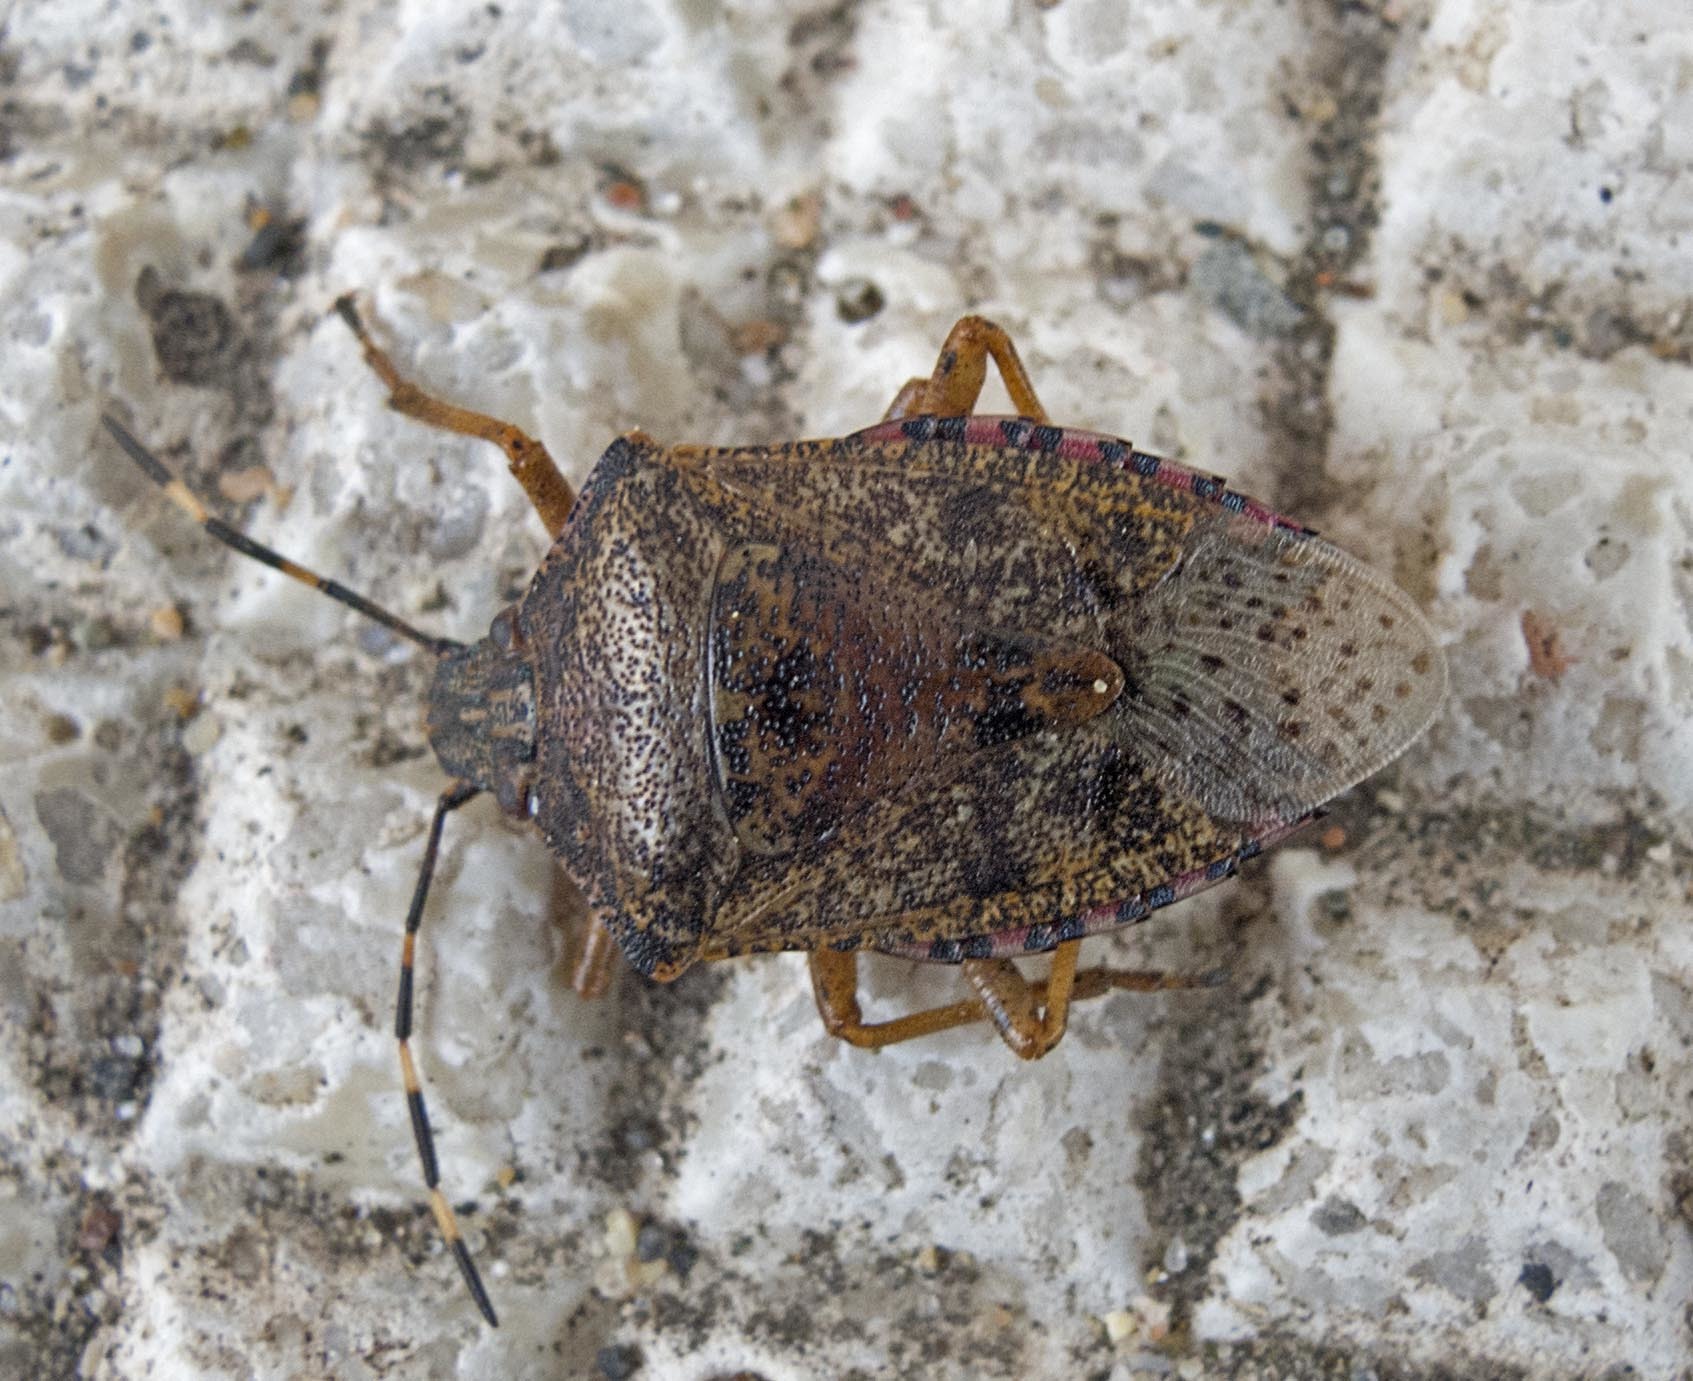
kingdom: Animalia
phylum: Arthropoda
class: Insecta
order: Hemiptera
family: Pentatomidae
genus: Rhaphigaster
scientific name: Rhaphigaster nebulosa
